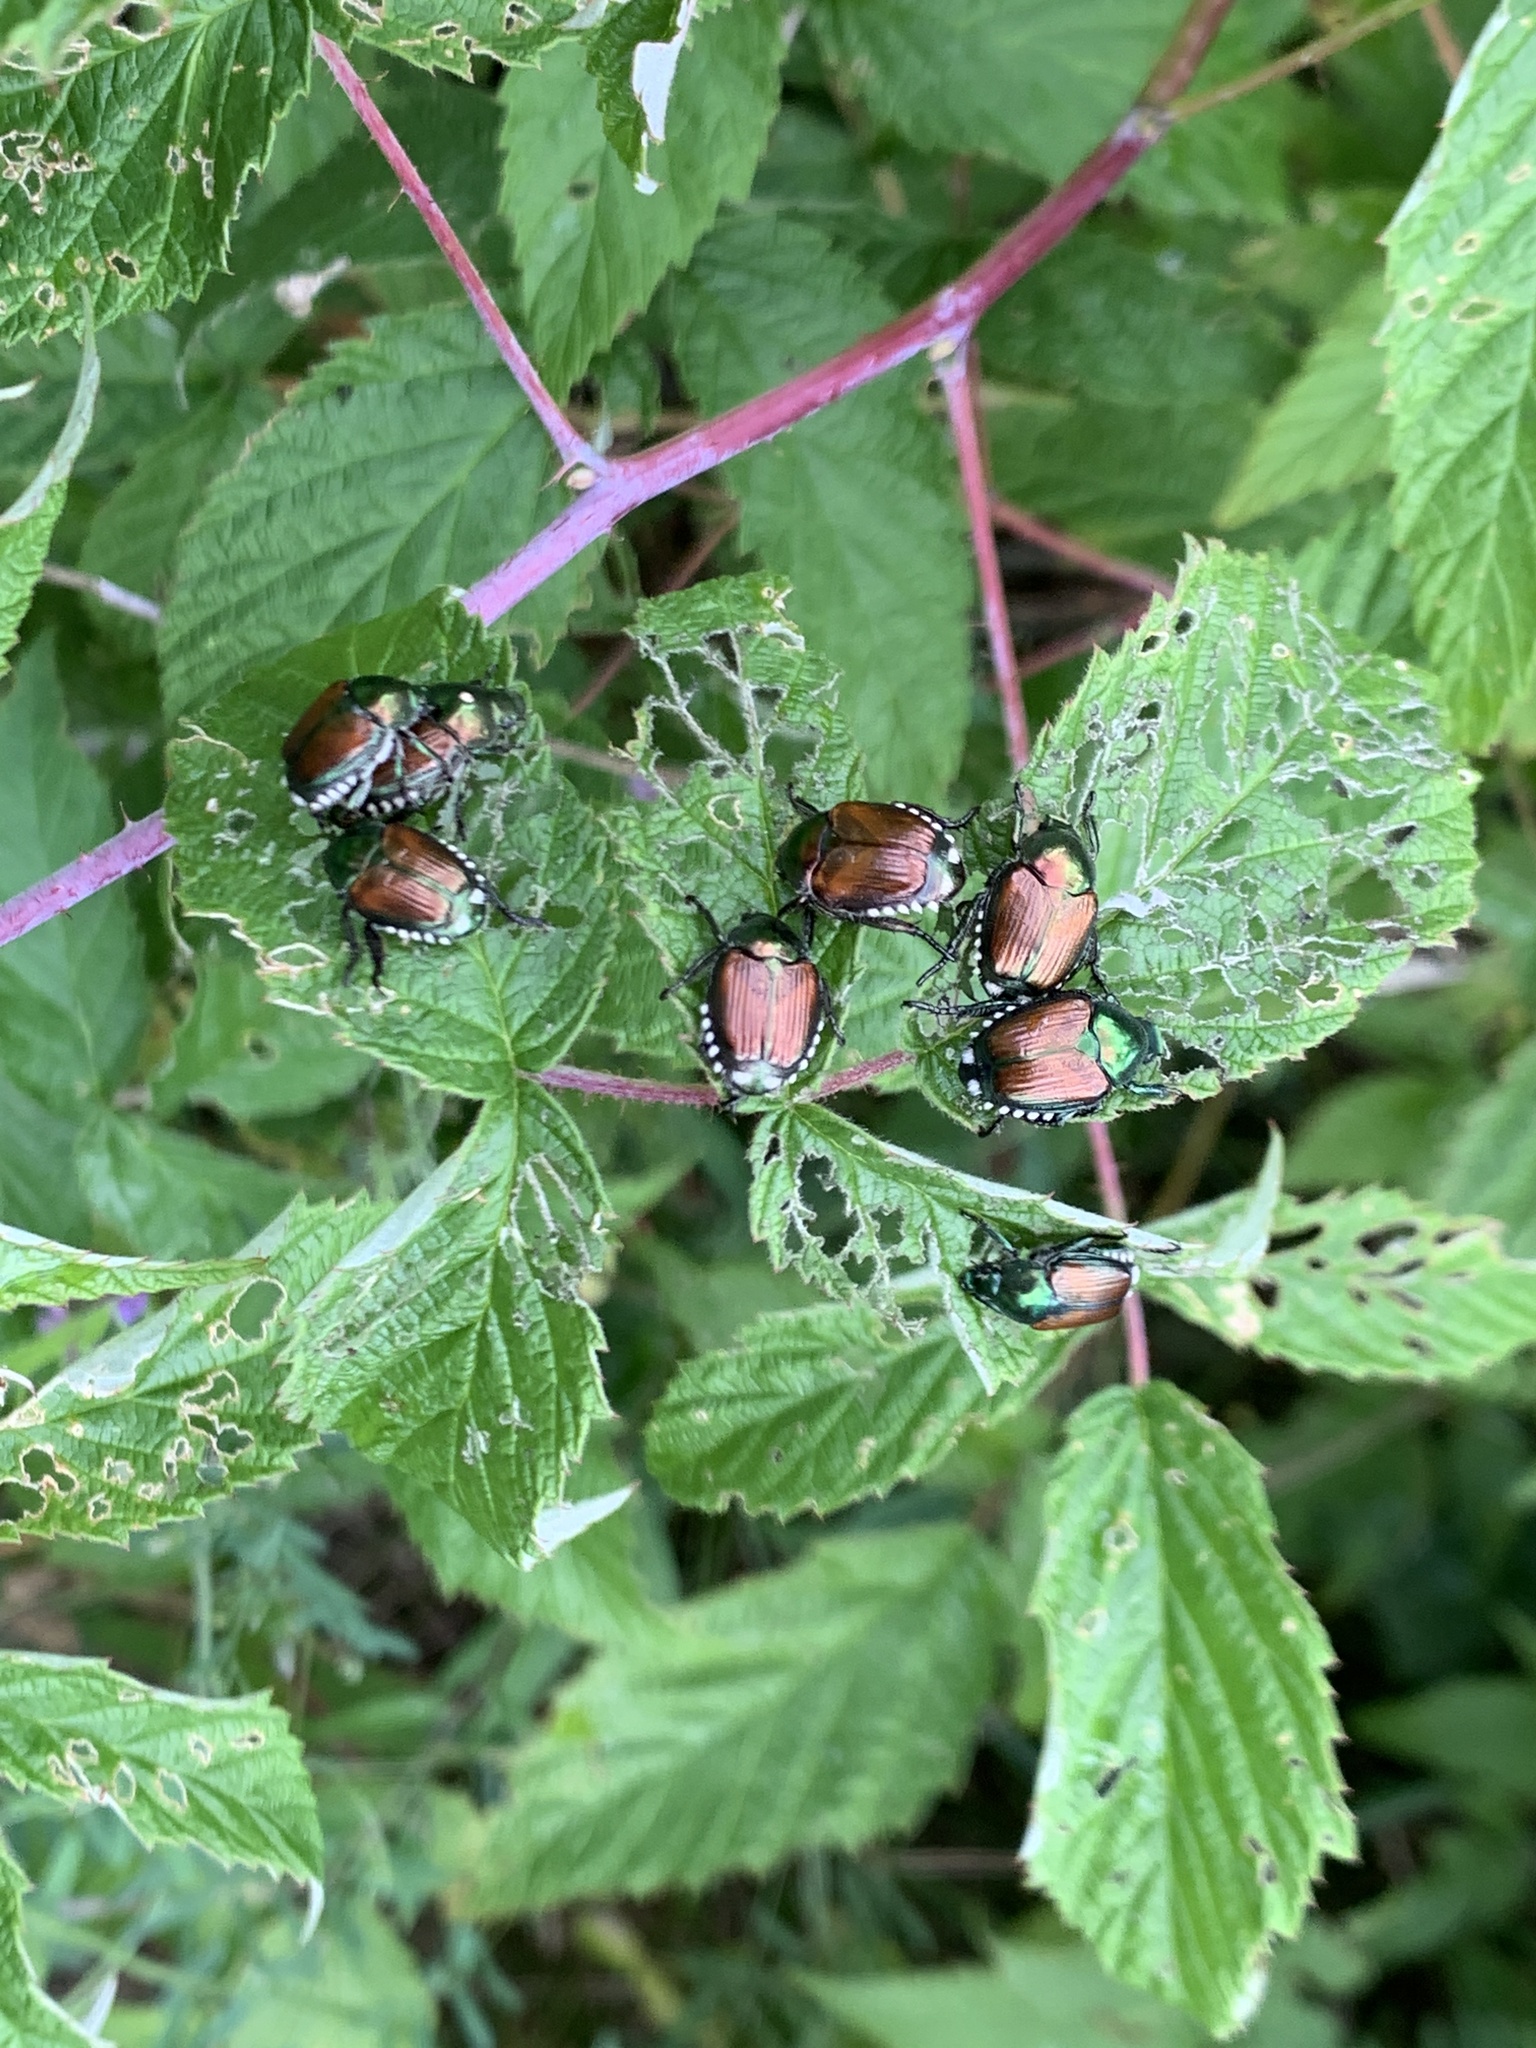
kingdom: Animalia
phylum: Arthropoda
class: Insecta
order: Coleoptera
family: Scarabaeidae
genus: Popillia
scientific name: Popillia japonica
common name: Japanese beetle
